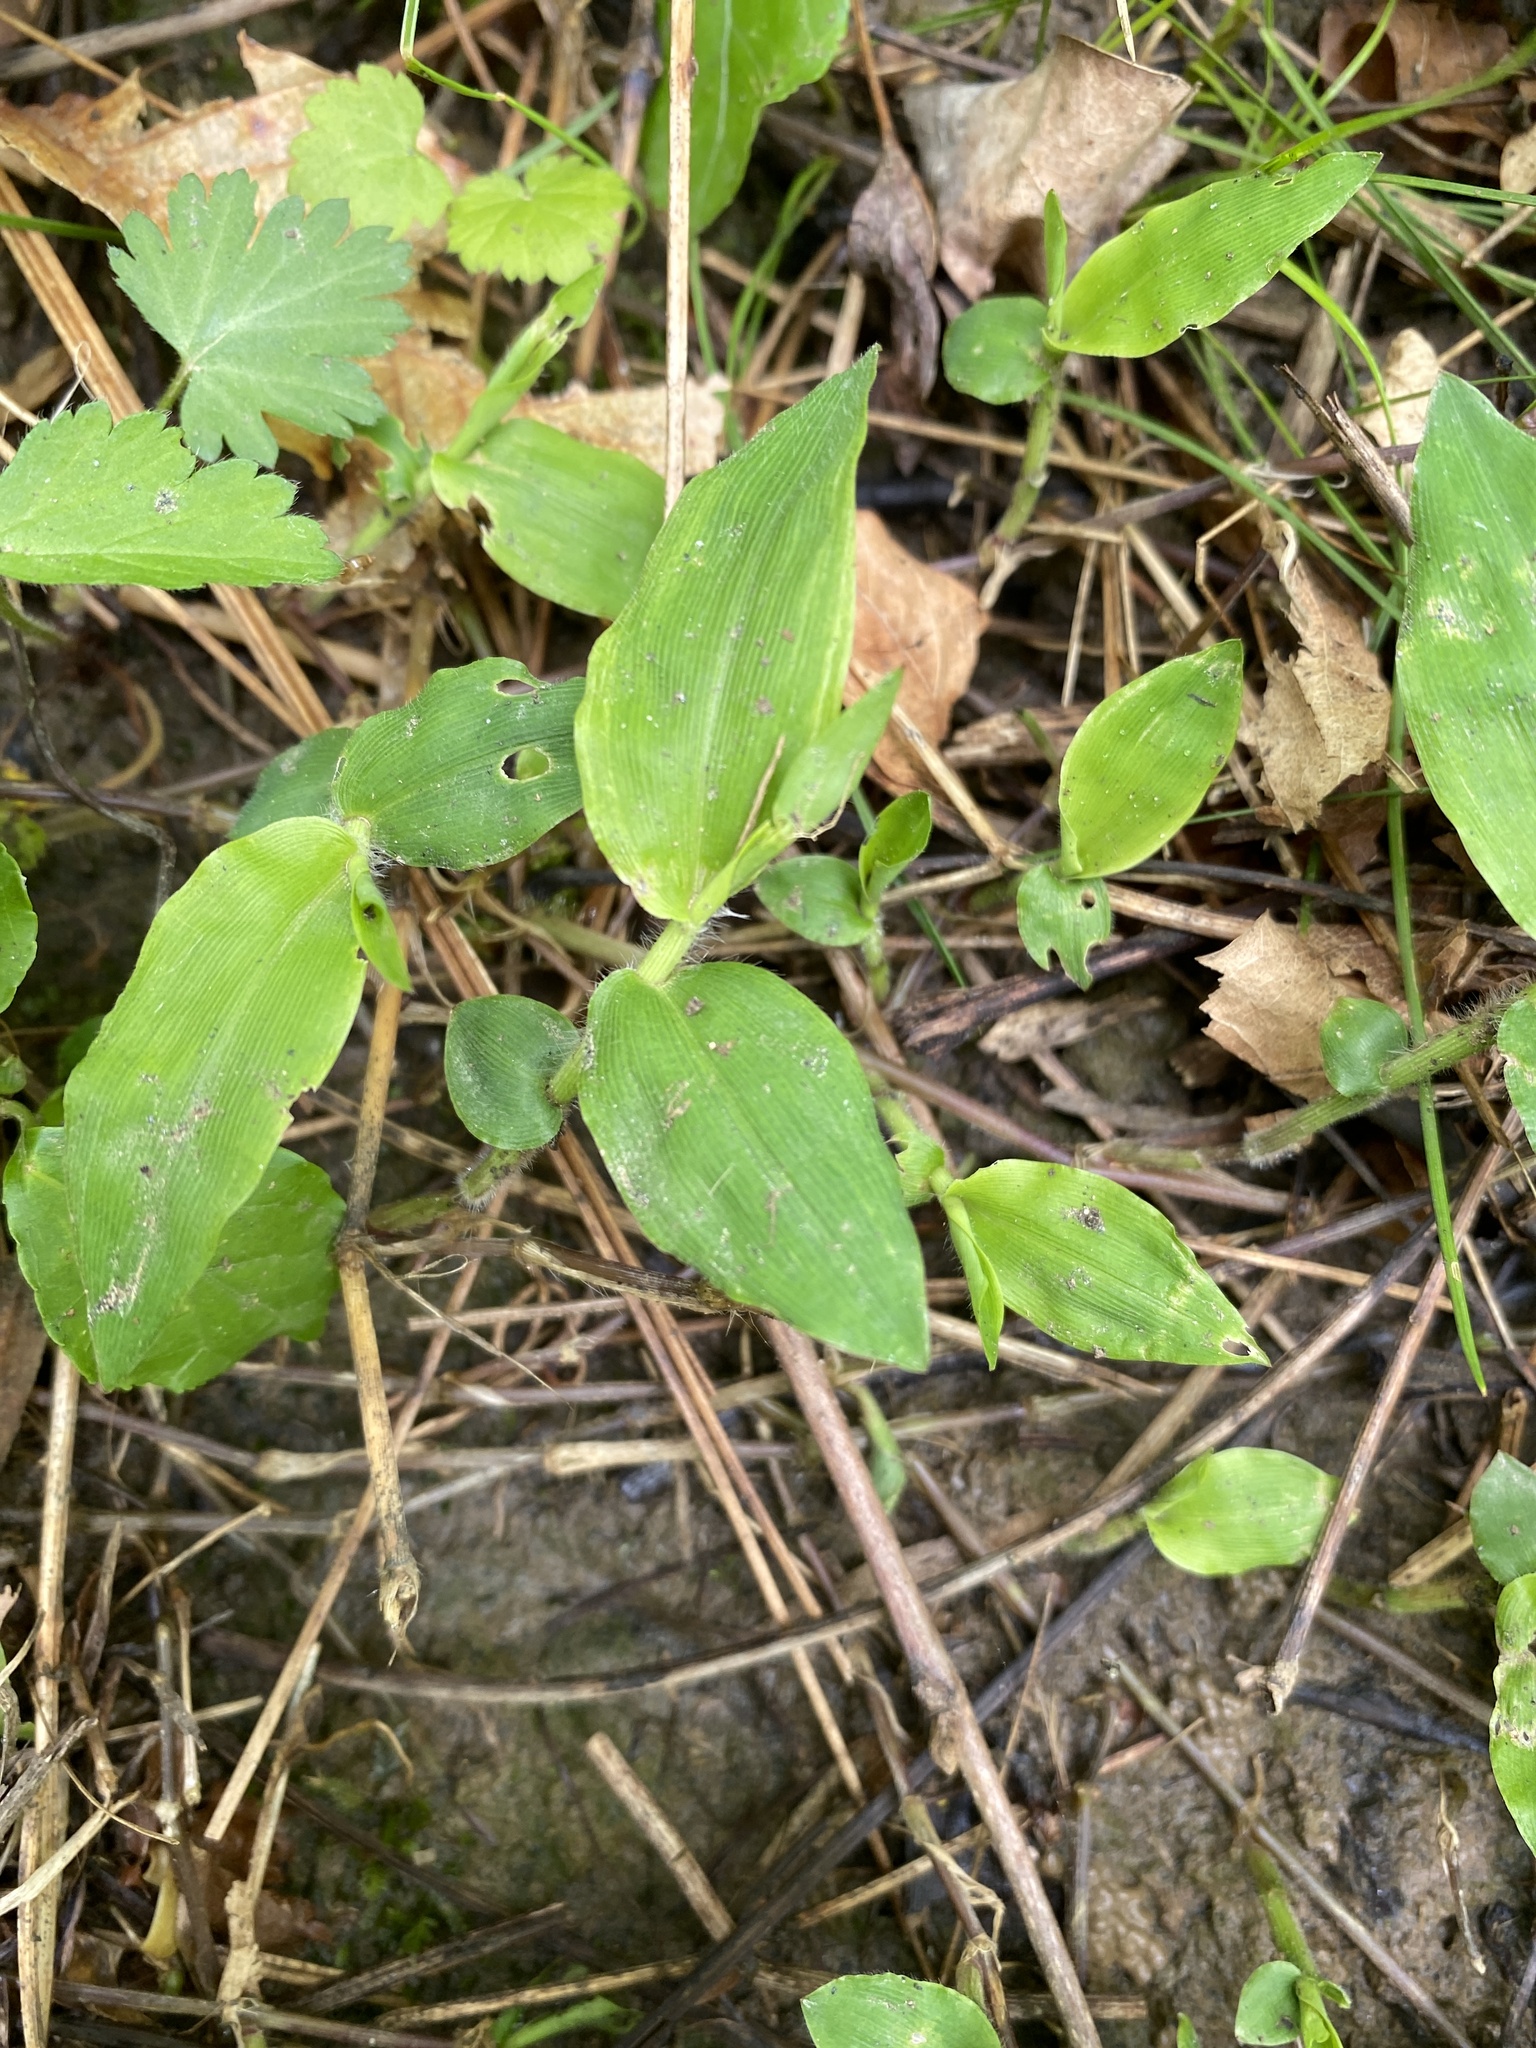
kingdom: Plantae
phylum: Tracheophyta
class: Liliopsida
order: Poales
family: Poaceae
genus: Arthraxon
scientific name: Arthraxon hispidus
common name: Small carpgrass
